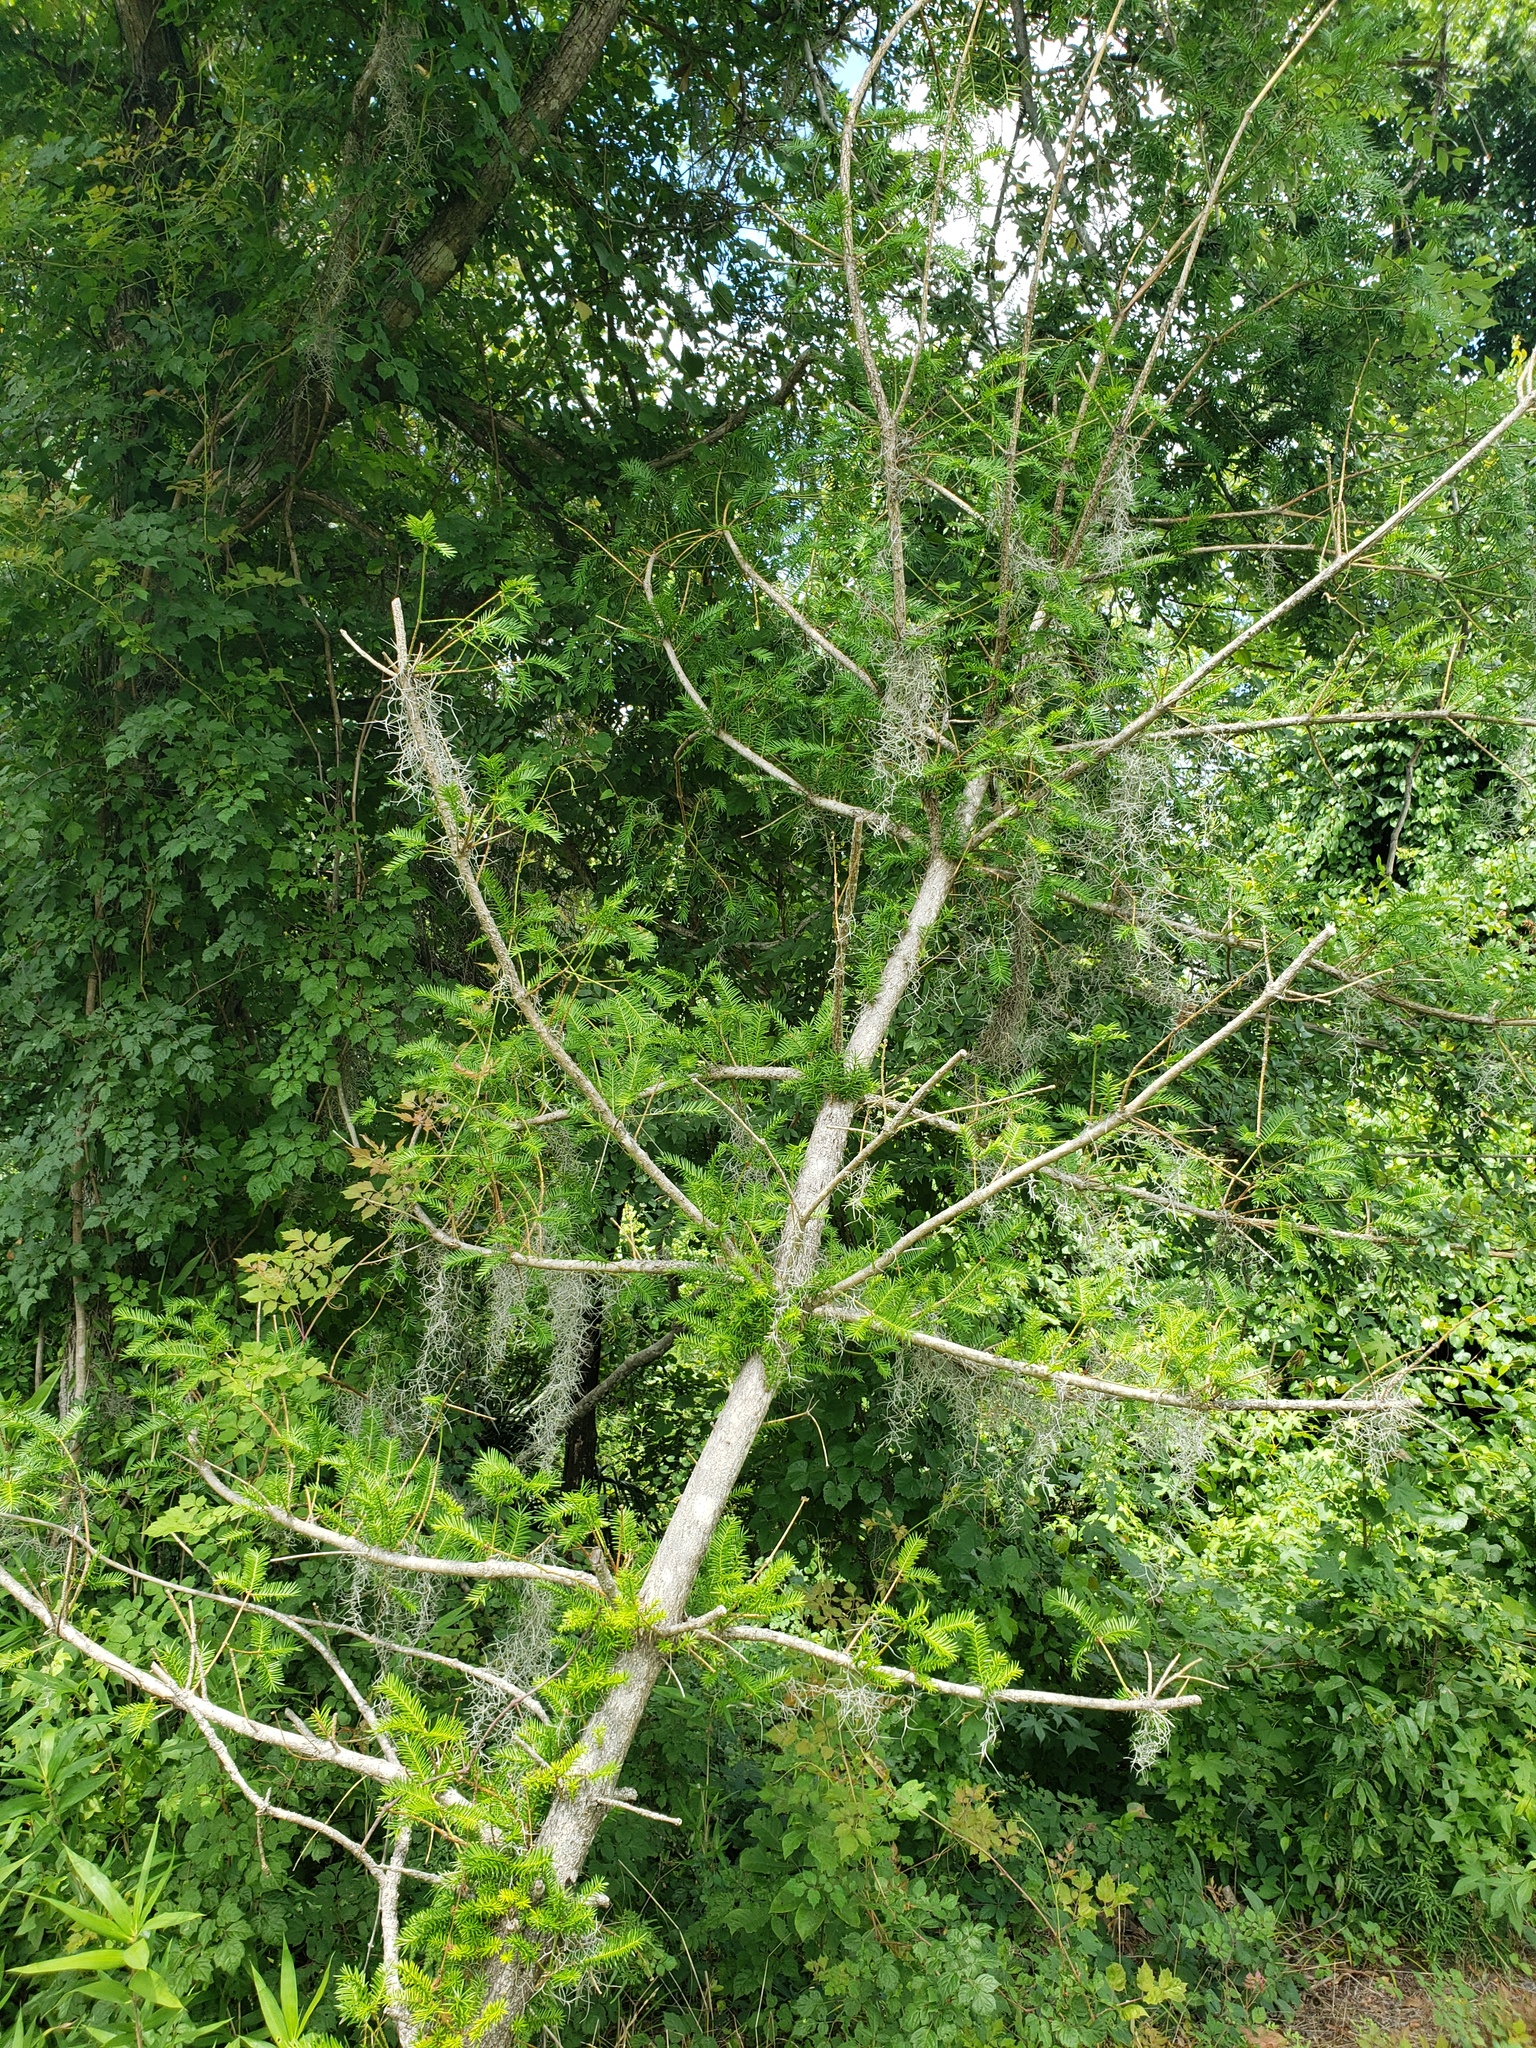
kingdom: Plantae
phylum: Tracheophyta
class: Pinopsida
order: Pinales
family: Taxaceae
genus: Torreya
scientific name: Torreya taxifolia
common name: Florida torreya
